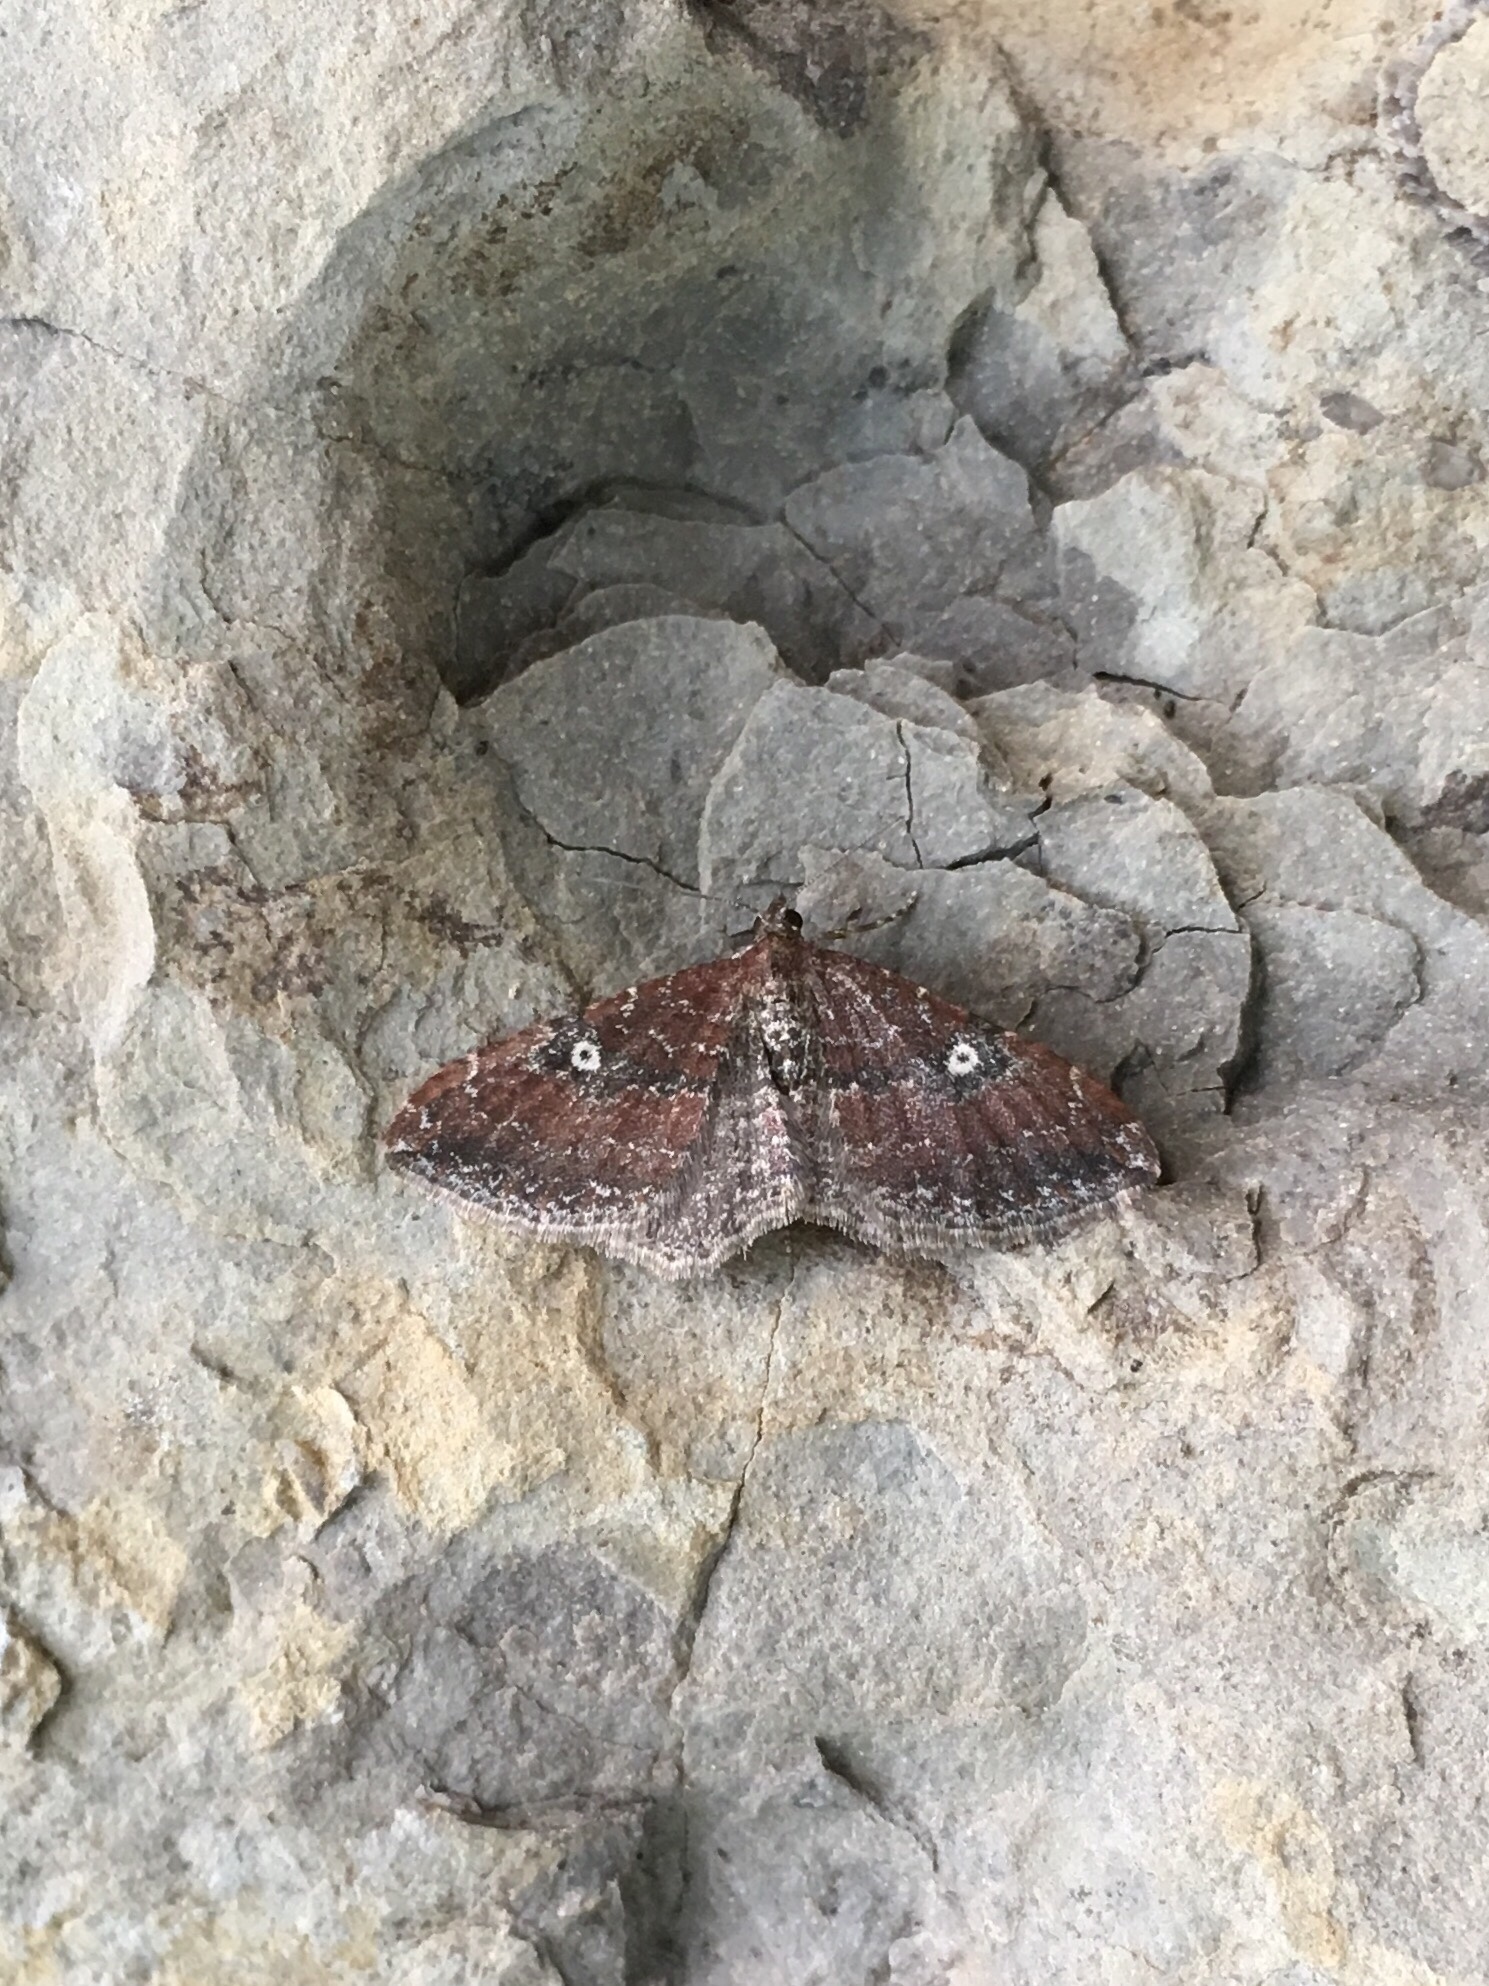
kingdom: Animalia
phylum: Arthropoda
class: Insecta
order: Lepidoptera
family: Geometridae
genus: Orthonama
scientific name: Orthonama obstipata
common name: The gem
